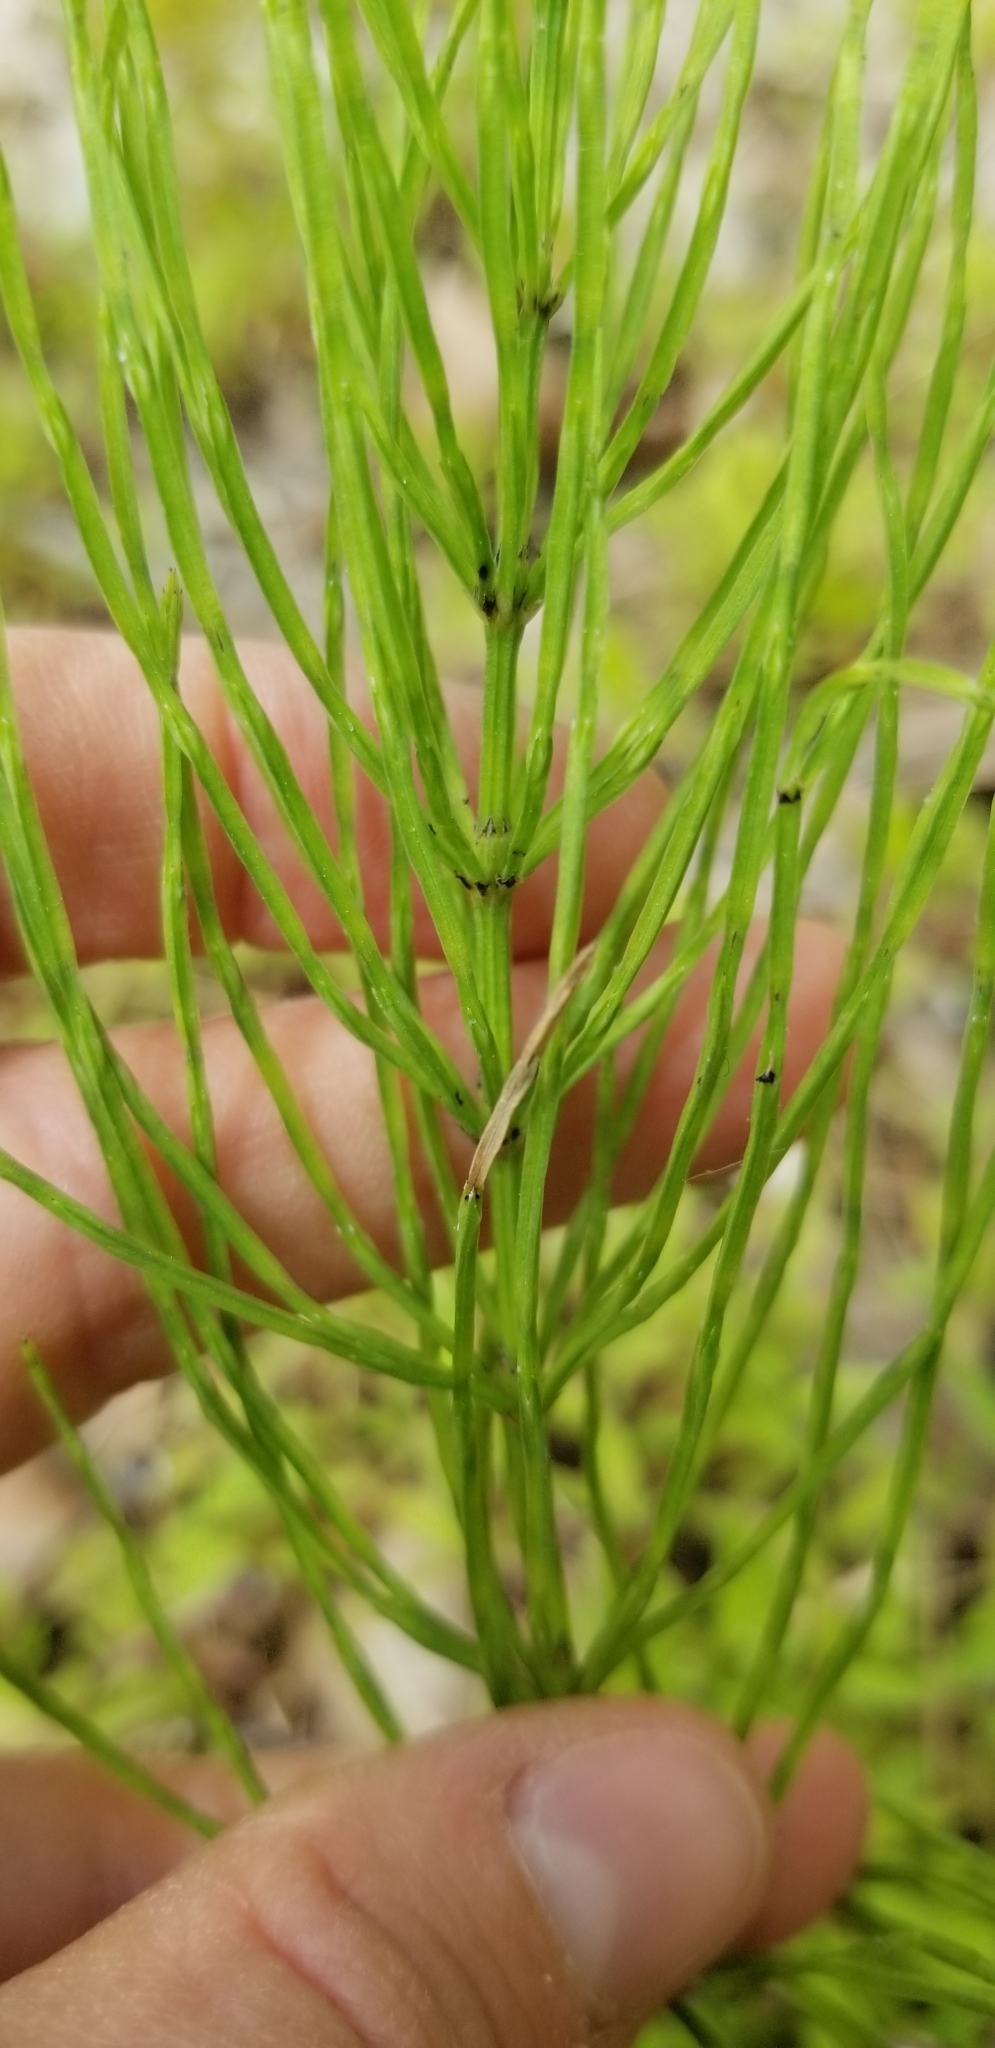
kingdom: Plantae
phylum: Tracheophyta
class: Polypodiopsida
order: Equisetales
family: Equisetaceae
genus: Equisetum
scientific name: Equisetum arvense
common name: Field horsetail
